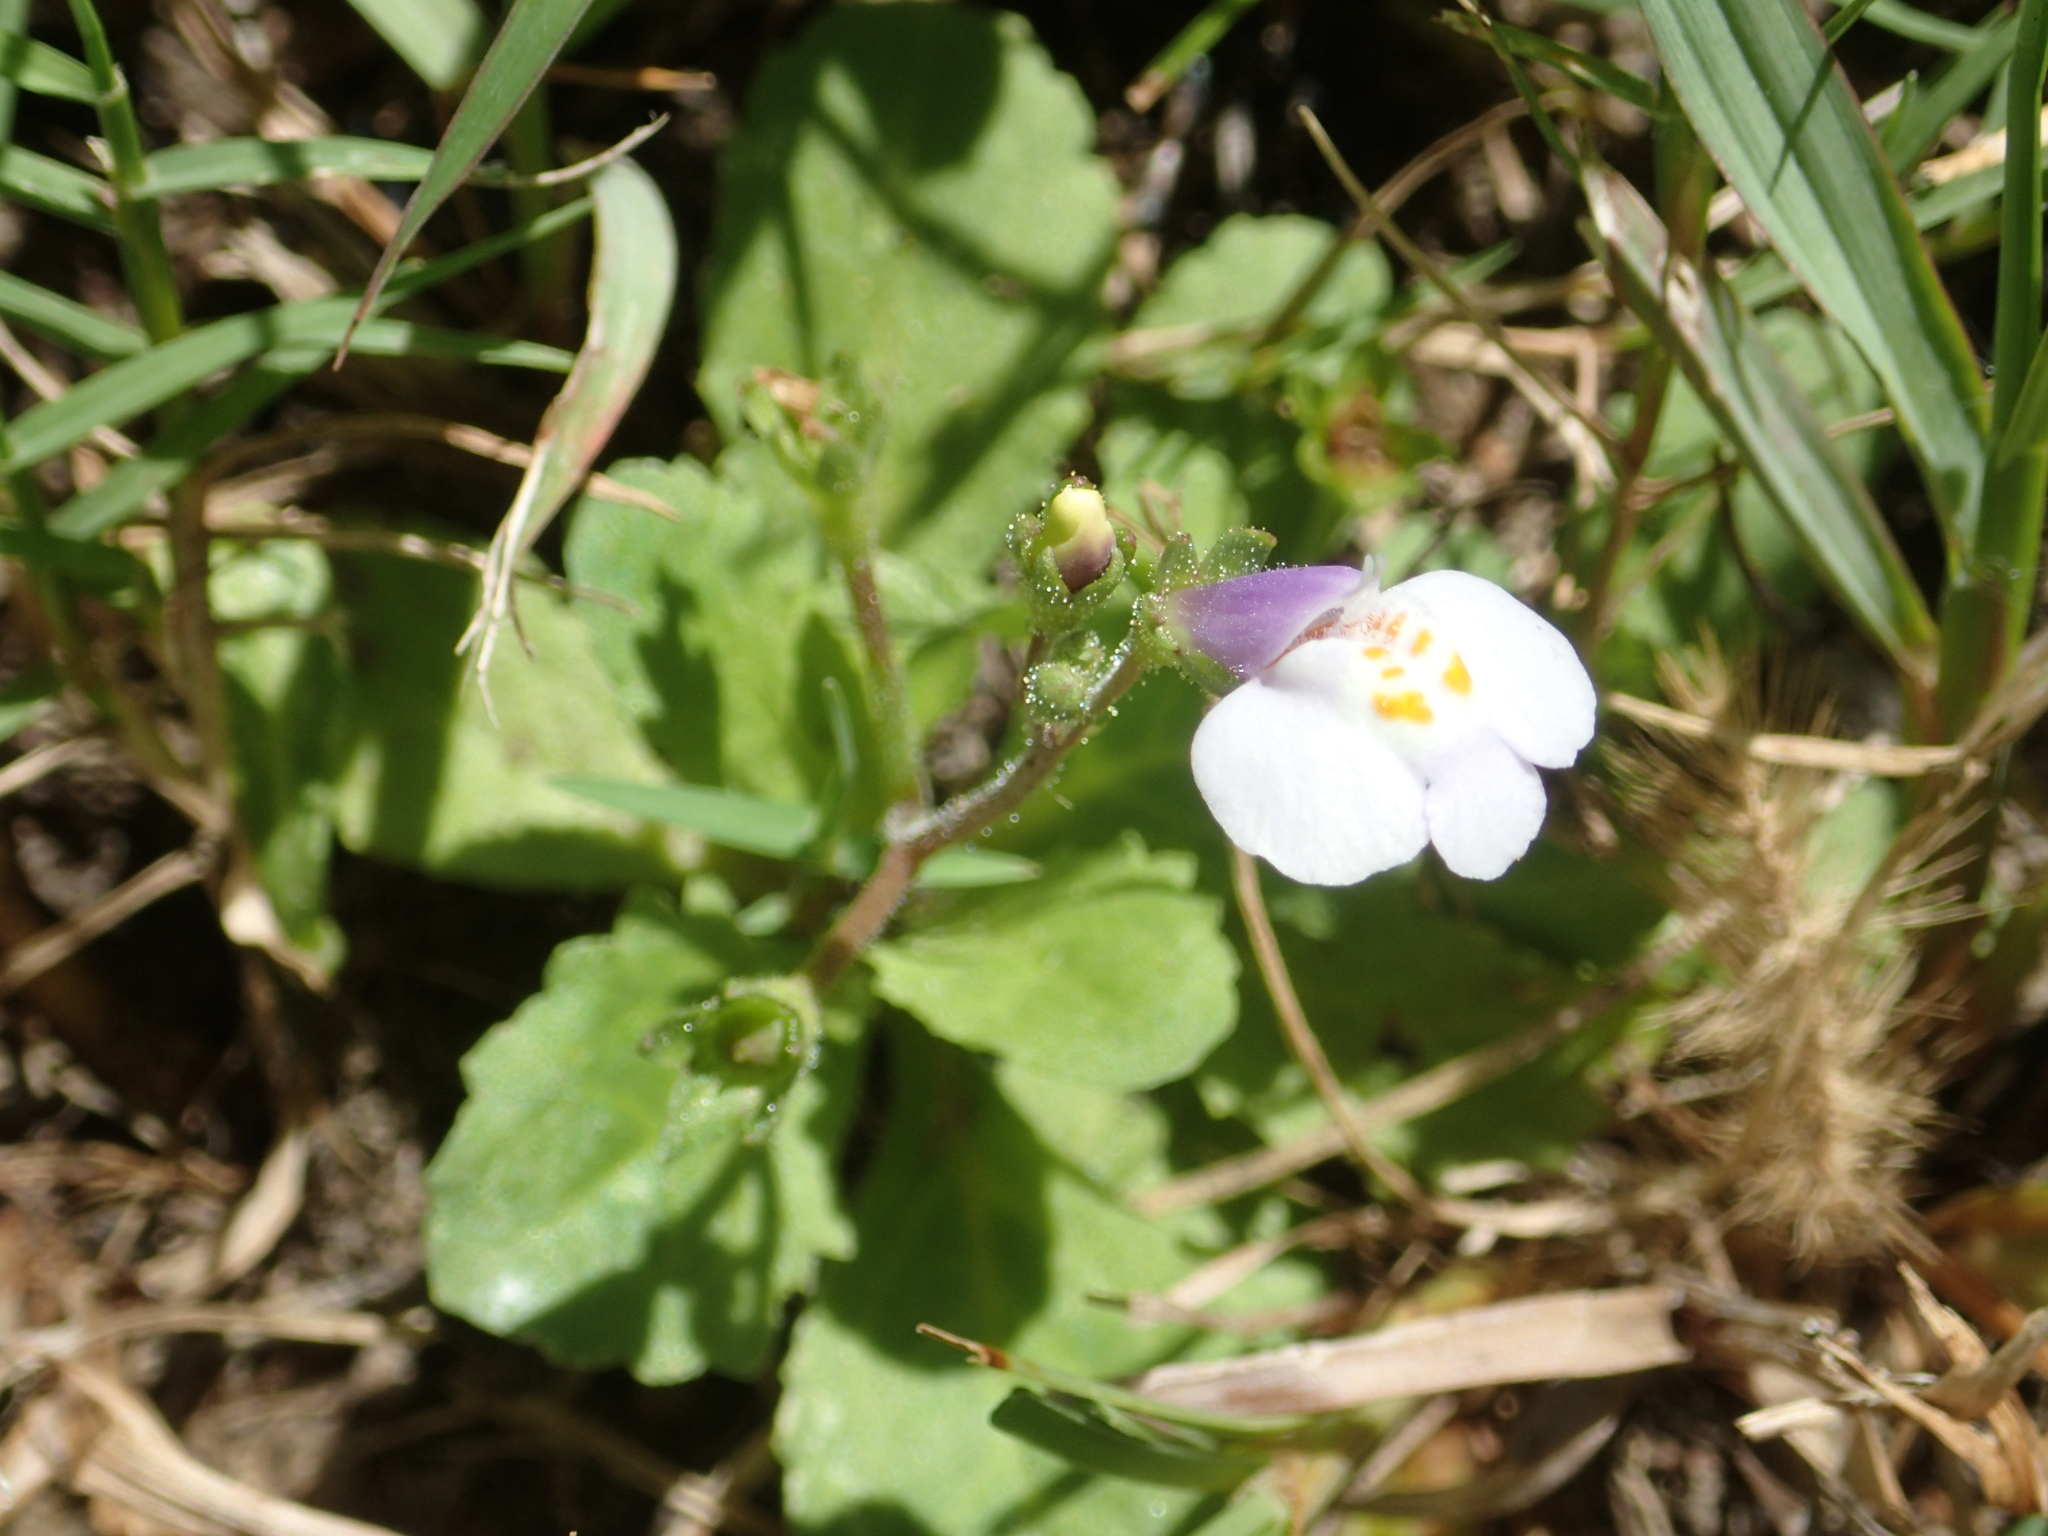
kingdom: Plantae
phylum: Tracheophyta
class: Magnoliopsida
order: Lamiales
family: Mazaceae
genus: Mazus
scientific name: Mazus pumilus
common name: Japanese mazus
